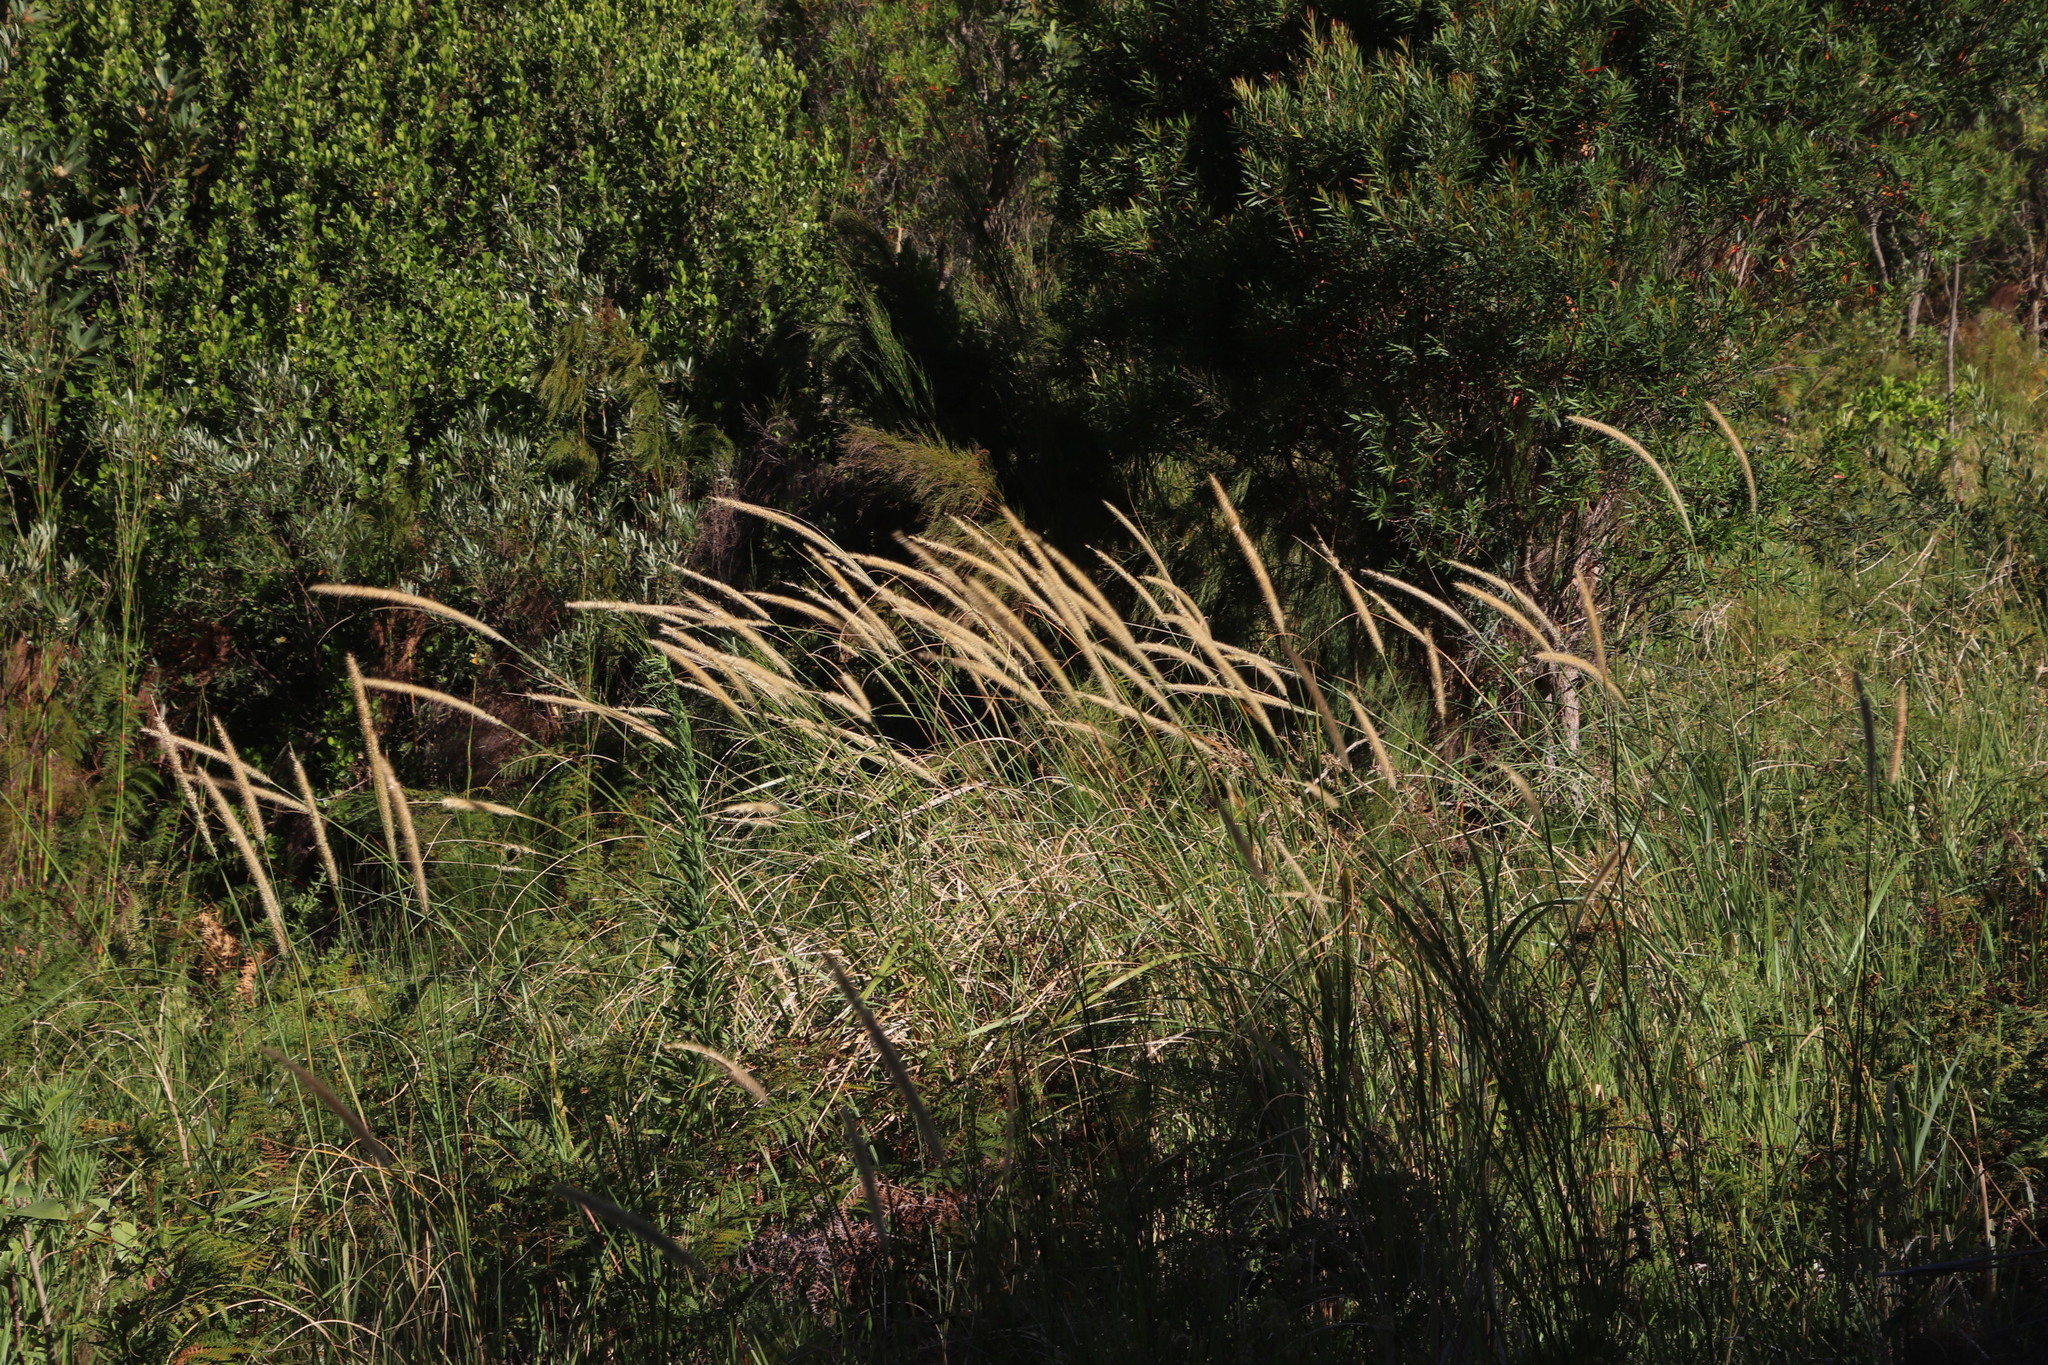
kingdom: Plantae
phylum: Tracheophyta
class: Liliopsida
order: Poales
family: Poaceae
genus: Cenchrus
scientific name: Cenchrus caudatus
